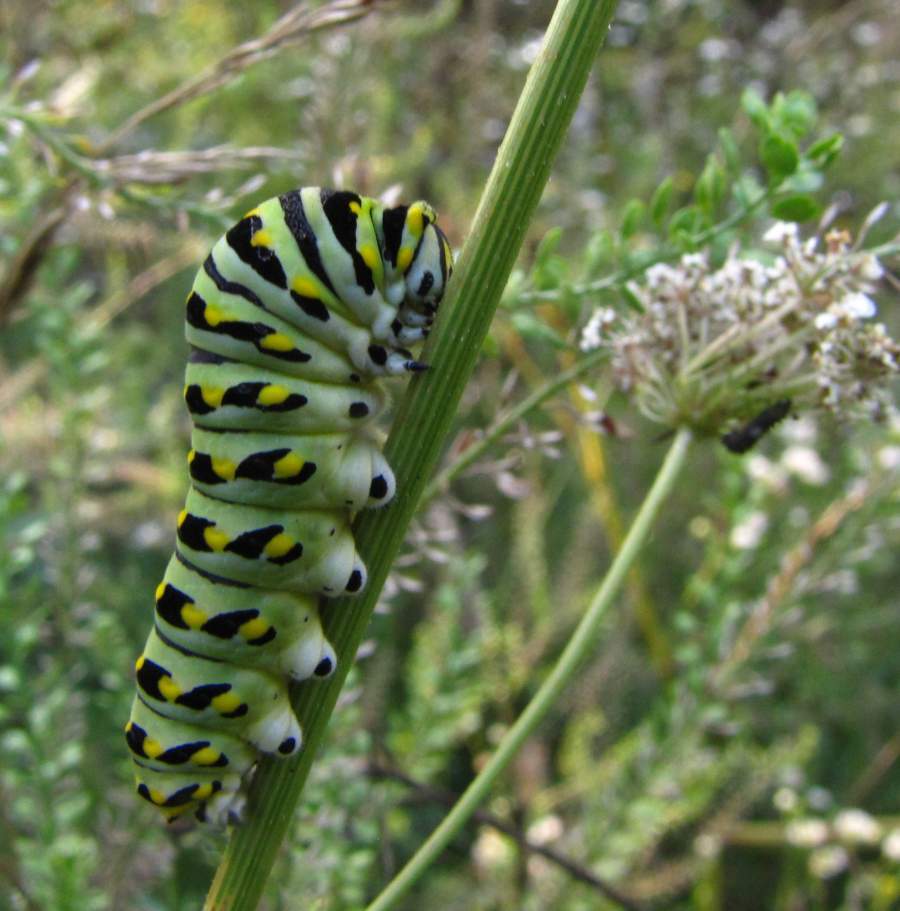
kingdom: Animalia
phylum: Arthropoda
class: Insecta
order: Lepidoptera
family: Papilionidae
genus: Papilio
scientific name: Papilio polyxenes
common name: Black swallowtail
